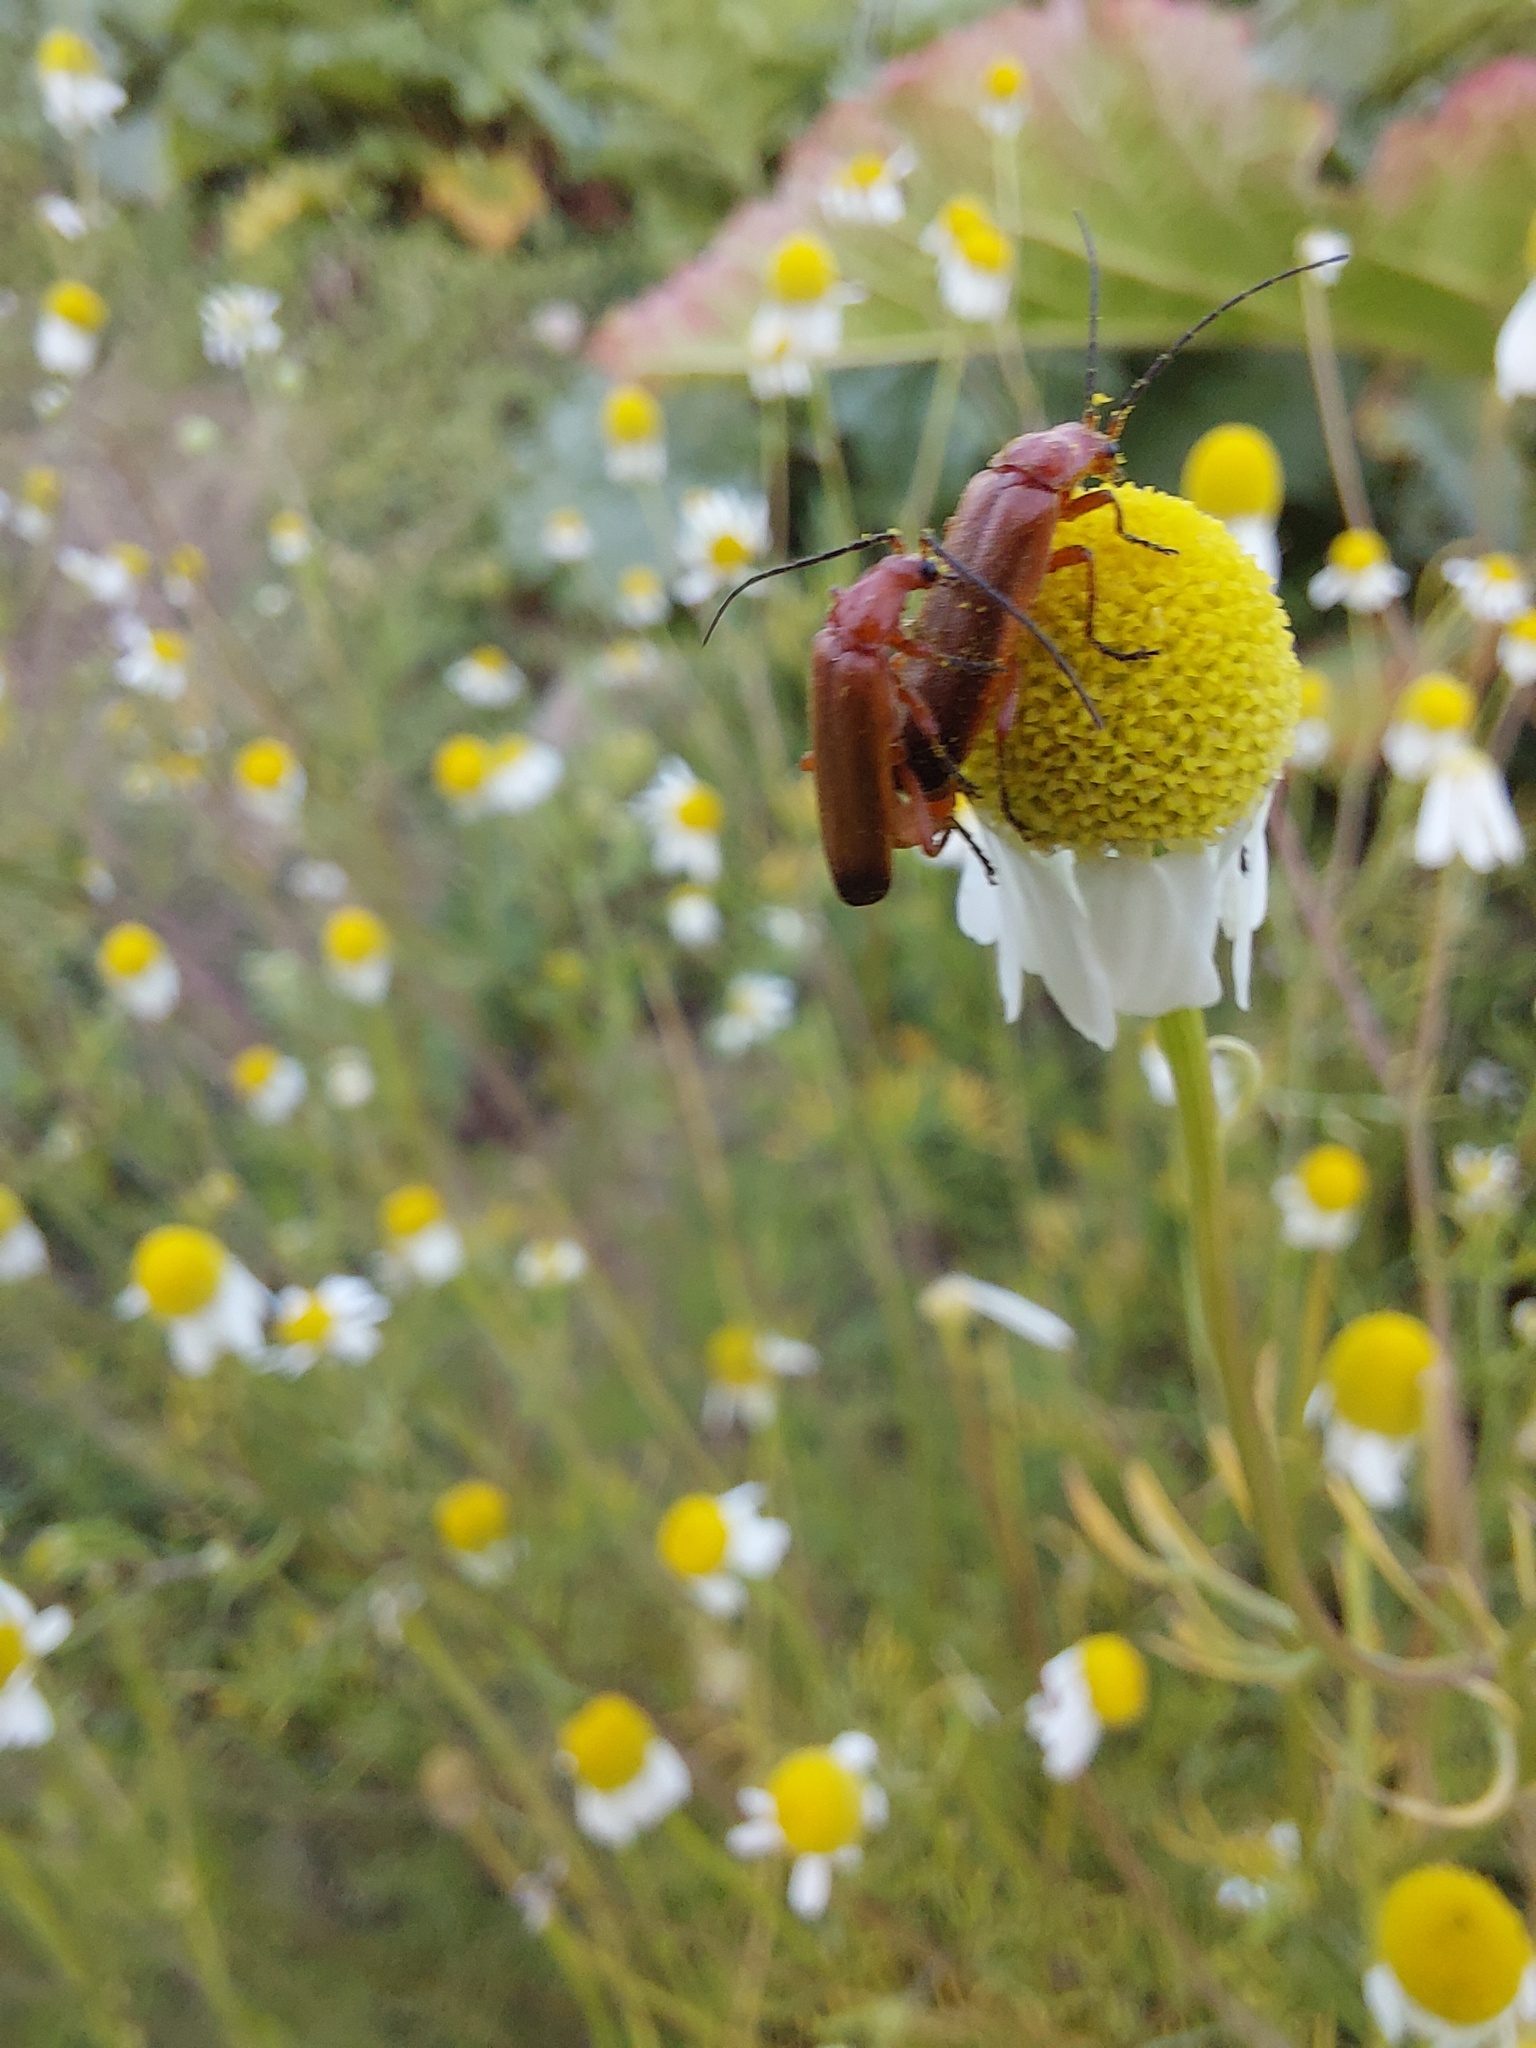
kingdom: Animalia
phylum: Arthropoda
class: Insecta
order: Coleoptera
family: Cantharidae
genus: Rhagonycha
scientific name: Rhagonycha fulva
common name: Common red soldier beetle
